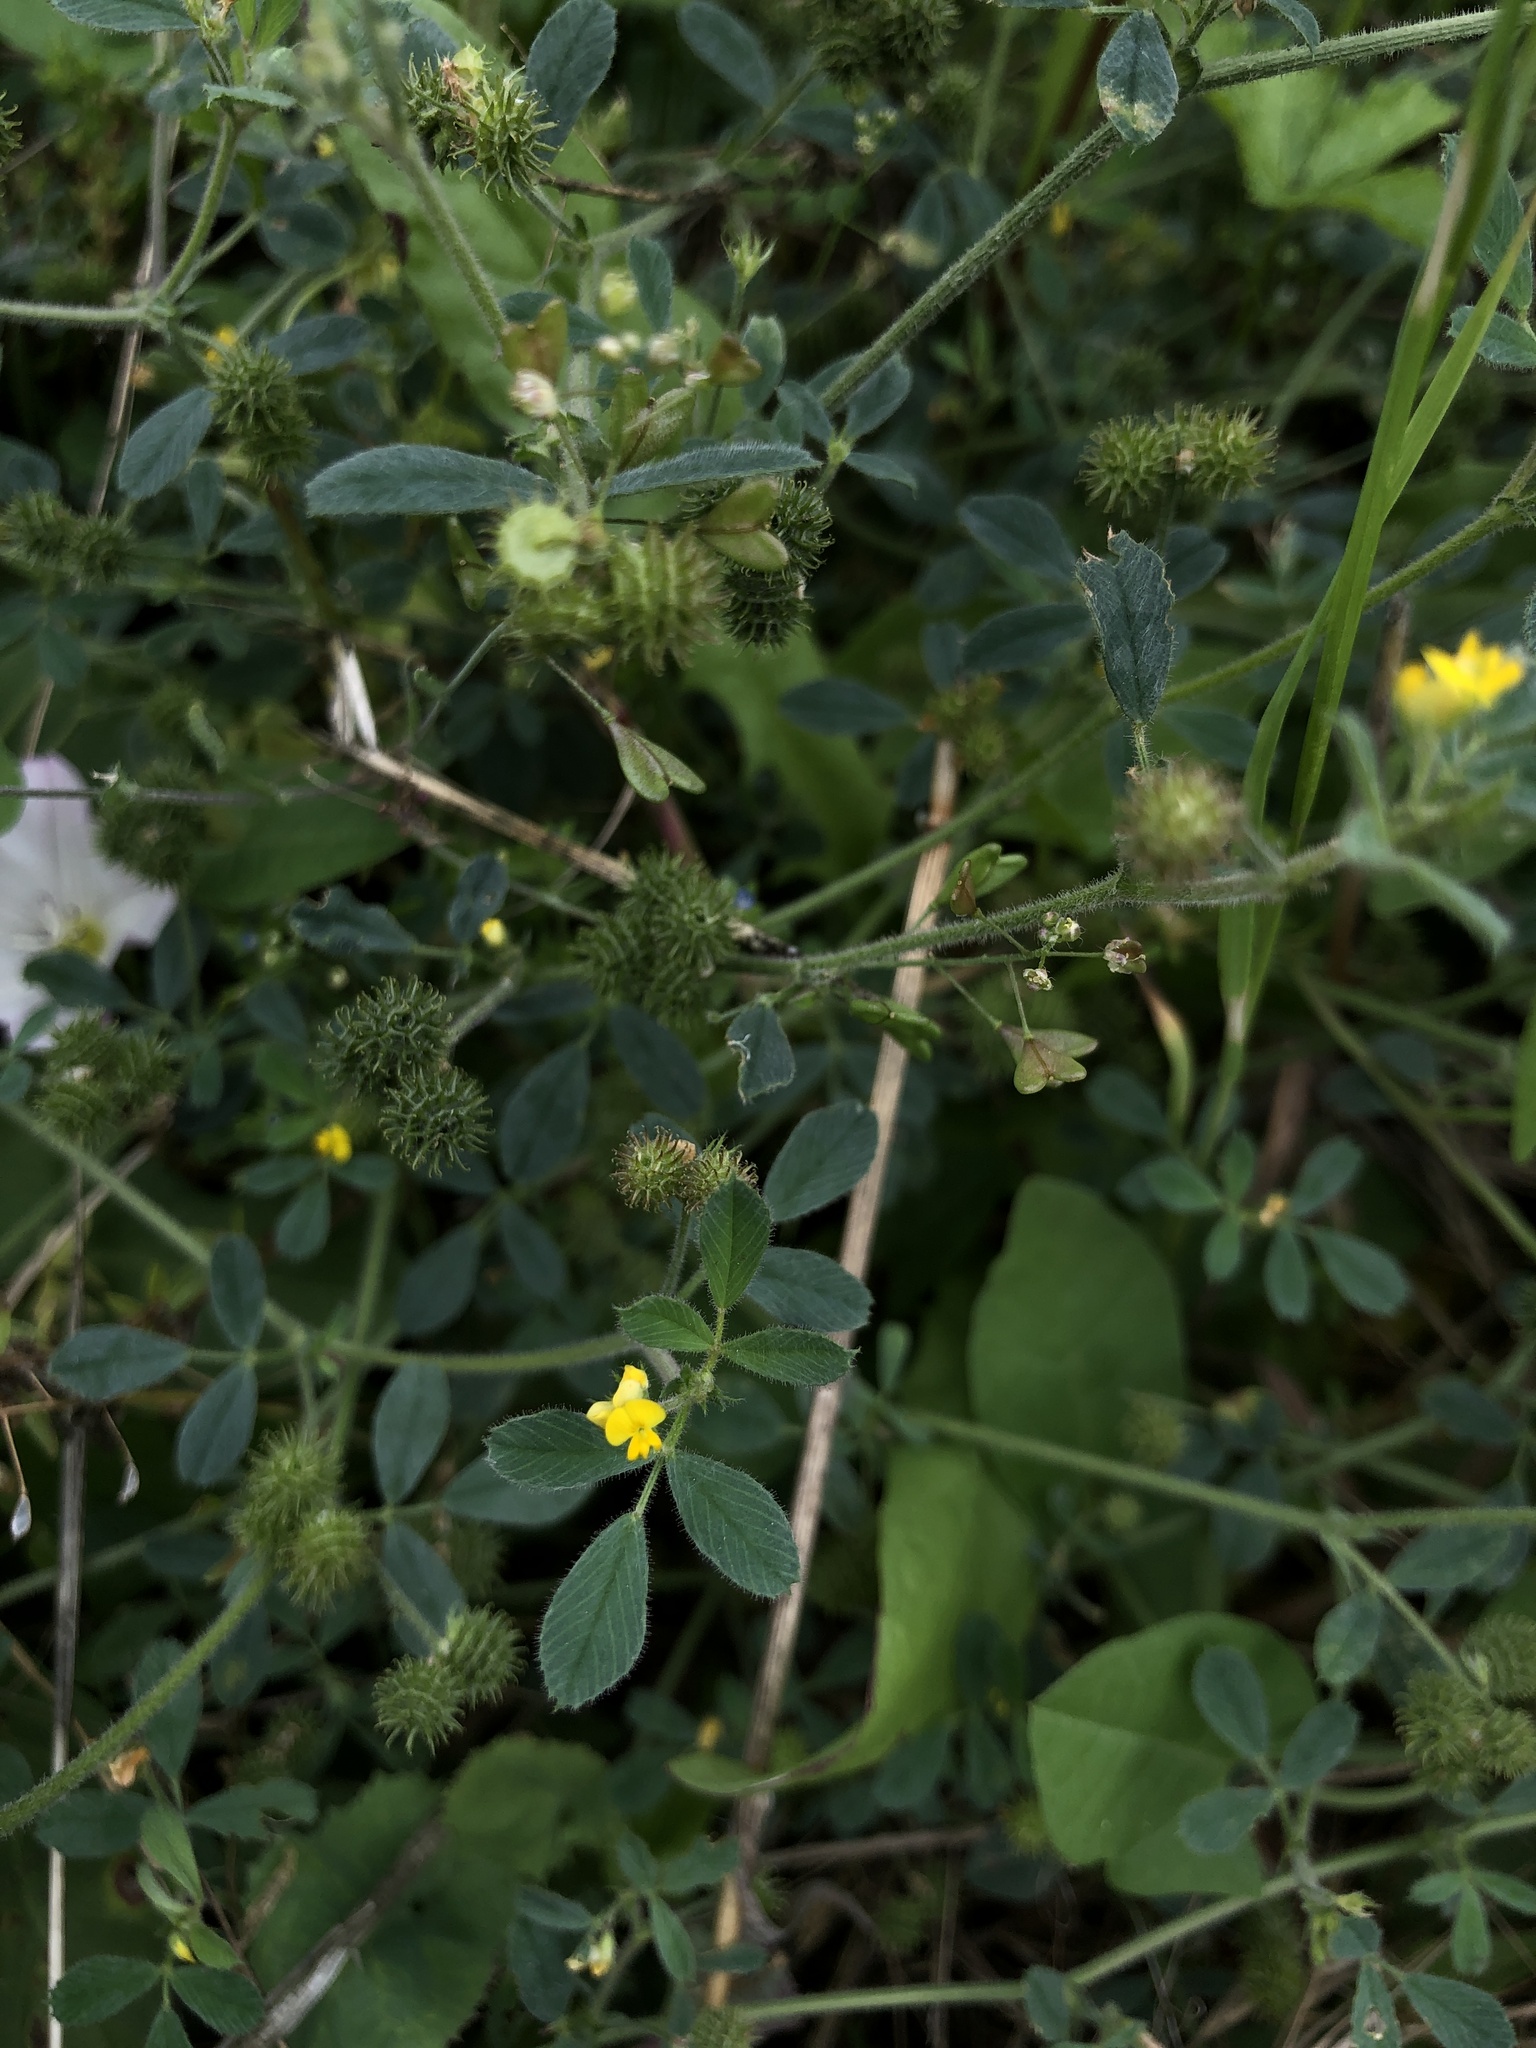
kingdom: Plantae
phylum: Tracheophyta
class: Magnoliopsida
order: Fabales
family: Fabaceae
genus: Medicago
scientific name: Medicago minima
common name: Little bur-clover
